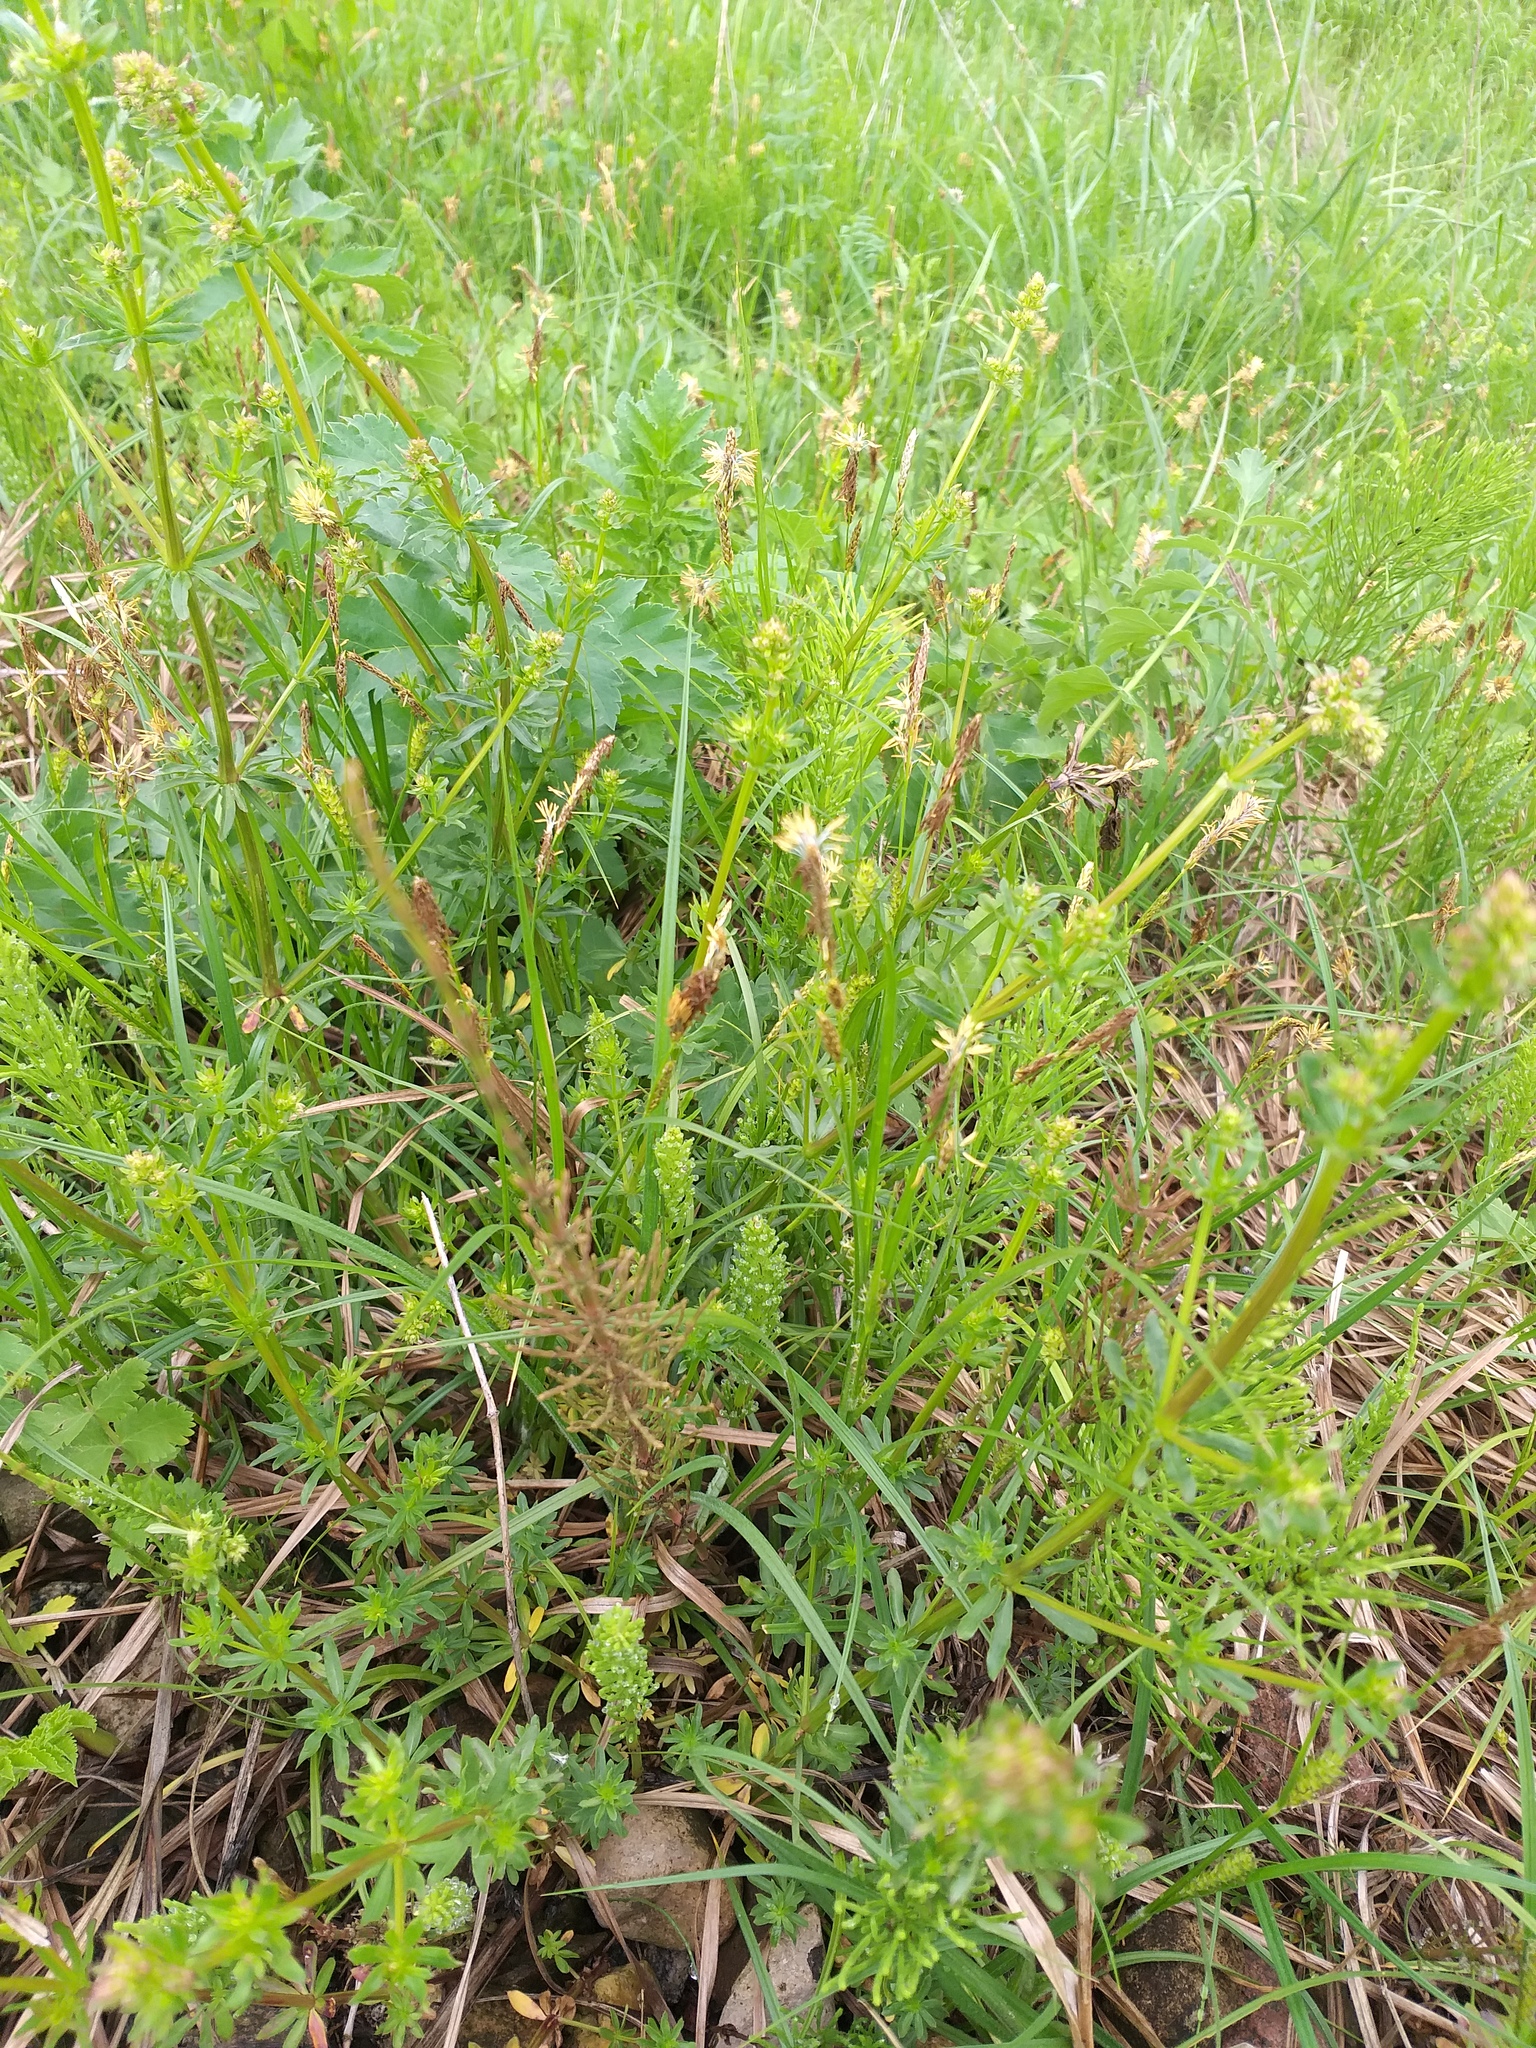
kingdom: Plantae
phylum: Tracheophyta
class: Liliopsida
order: Poales
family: Cyperaceae
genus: Carex
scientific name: Carex hirta
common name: Hairy sedge
